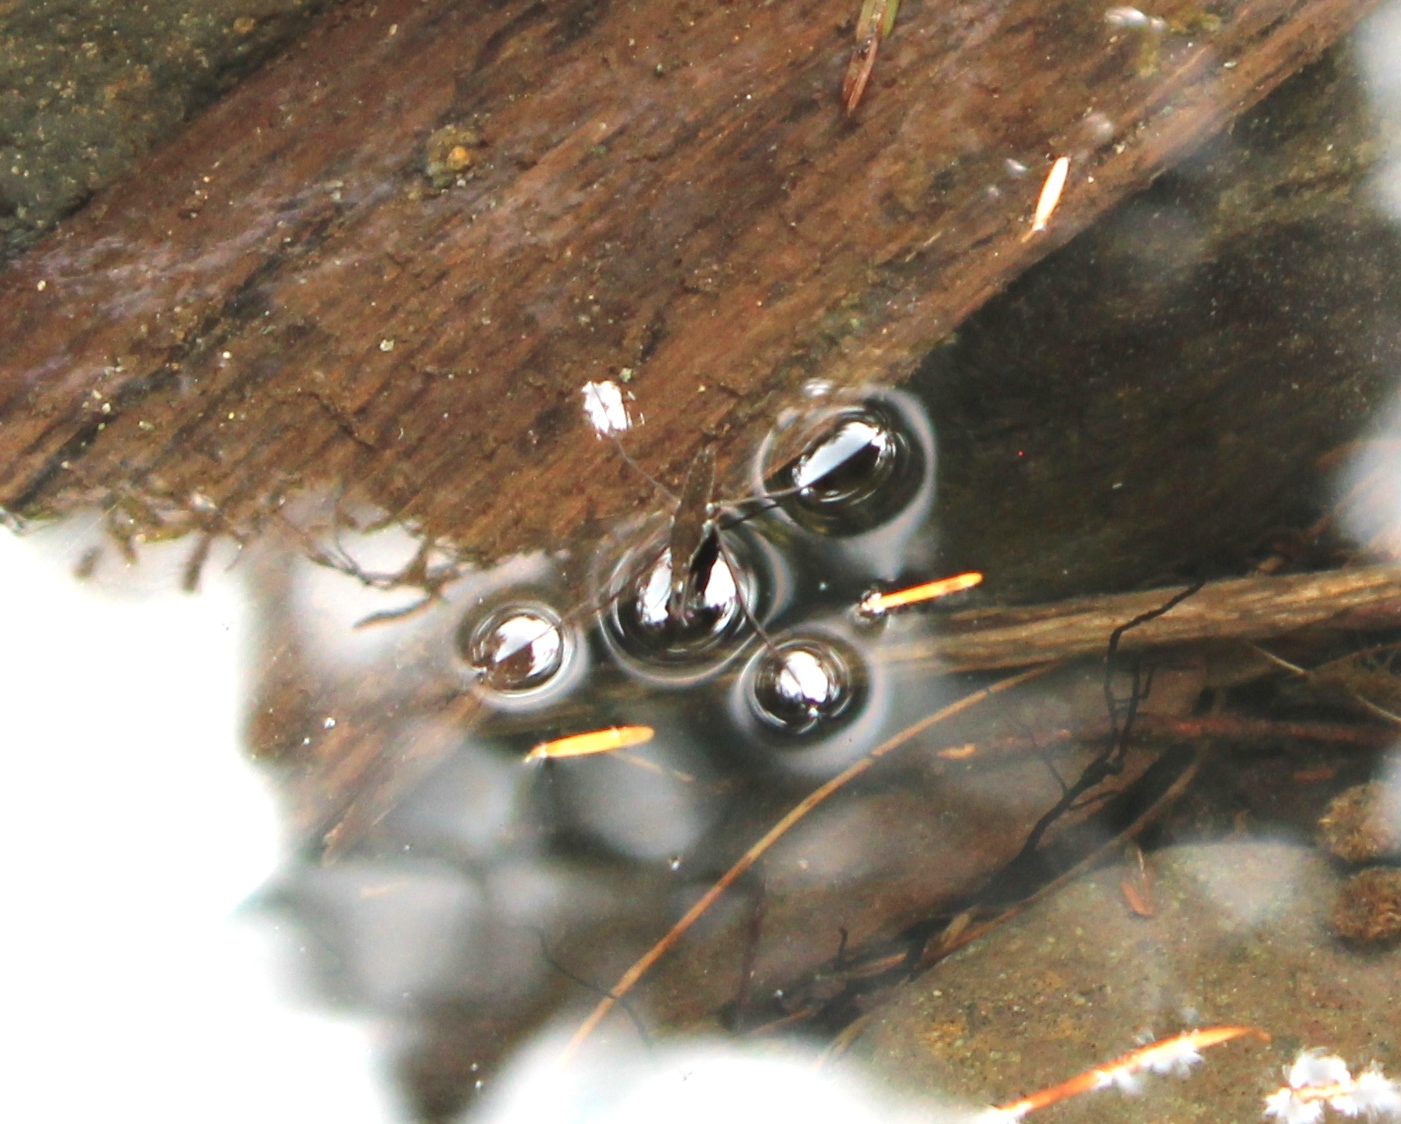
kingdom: Animalia
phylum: Arthropoda
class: Insecta
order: Hemiptera
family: Gerridae
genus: Aquarius
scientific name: Aquarius remigis
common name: Common water strider
